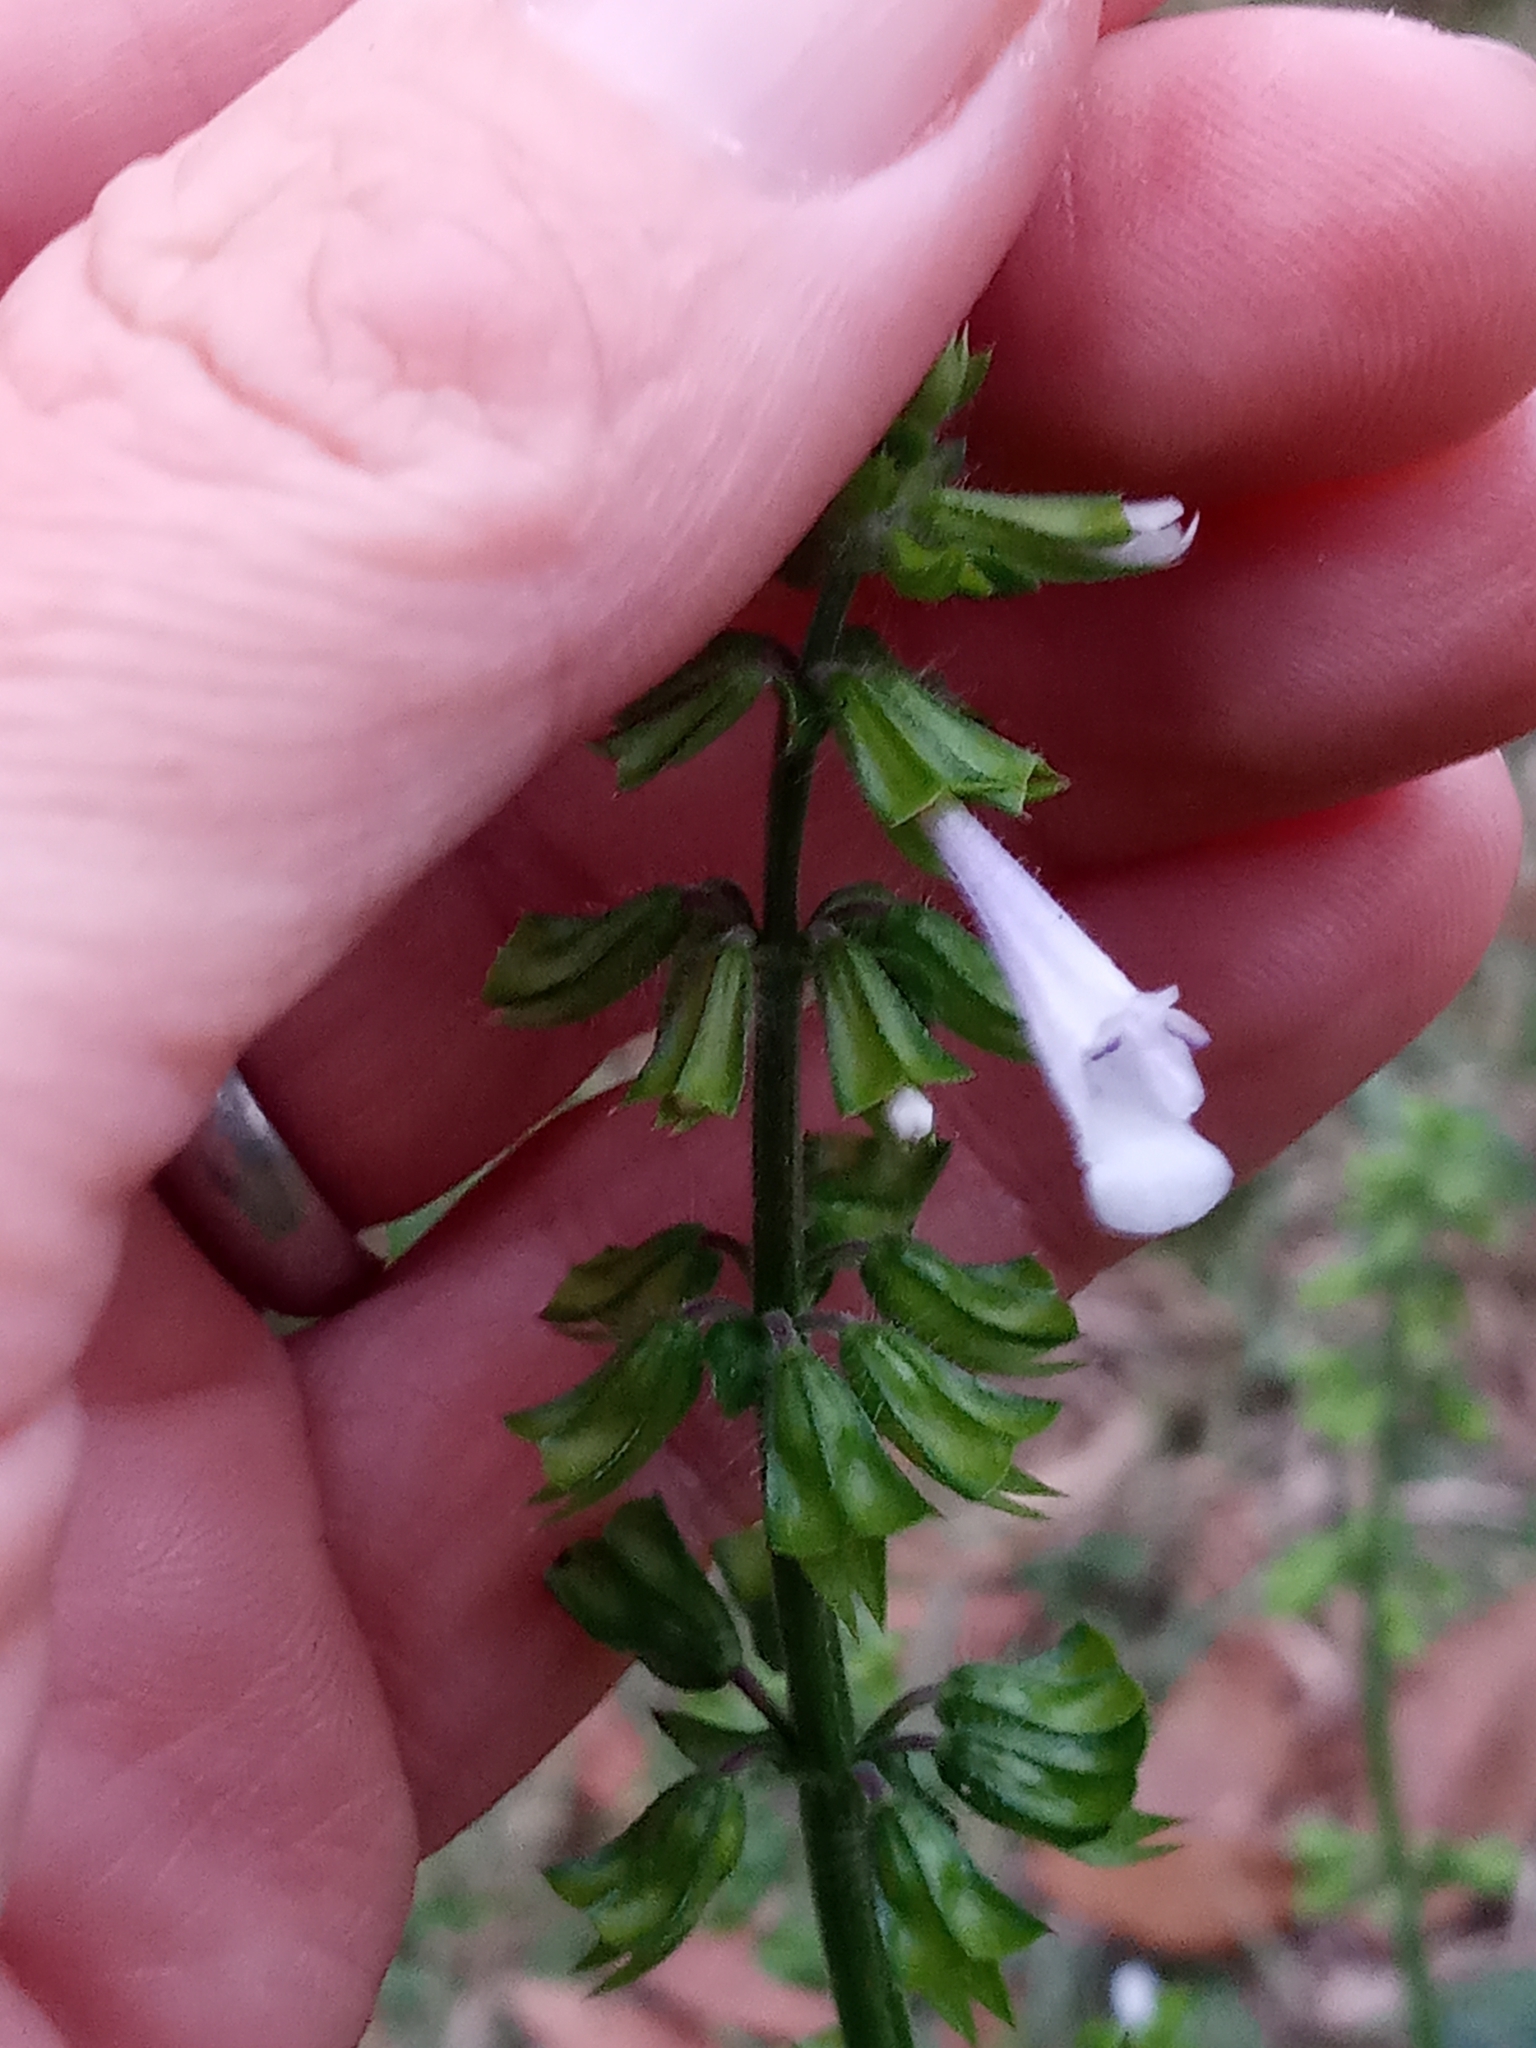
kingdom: Plantae
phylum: Tracheophyta
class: Magnoliopsida
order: Lamiales
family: Lamiaceae
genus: Salvia
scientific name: Salvia lyrata
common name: Cancerweed
